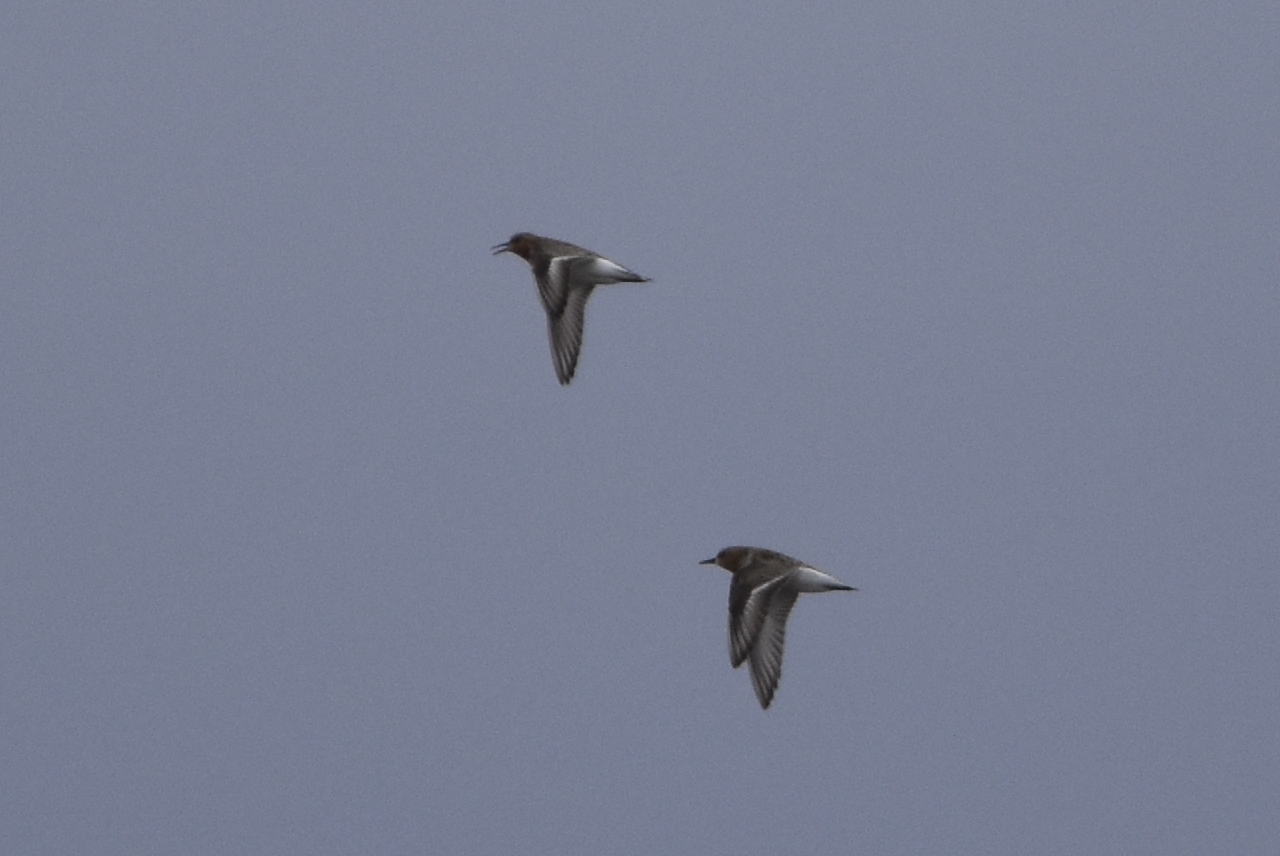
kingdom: Animalia
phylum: Chordata
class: Aves
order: Charadriiformes
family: Scolopacidae
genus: Calidris
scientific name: Calidris ruficollis
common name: Red-necked stint
